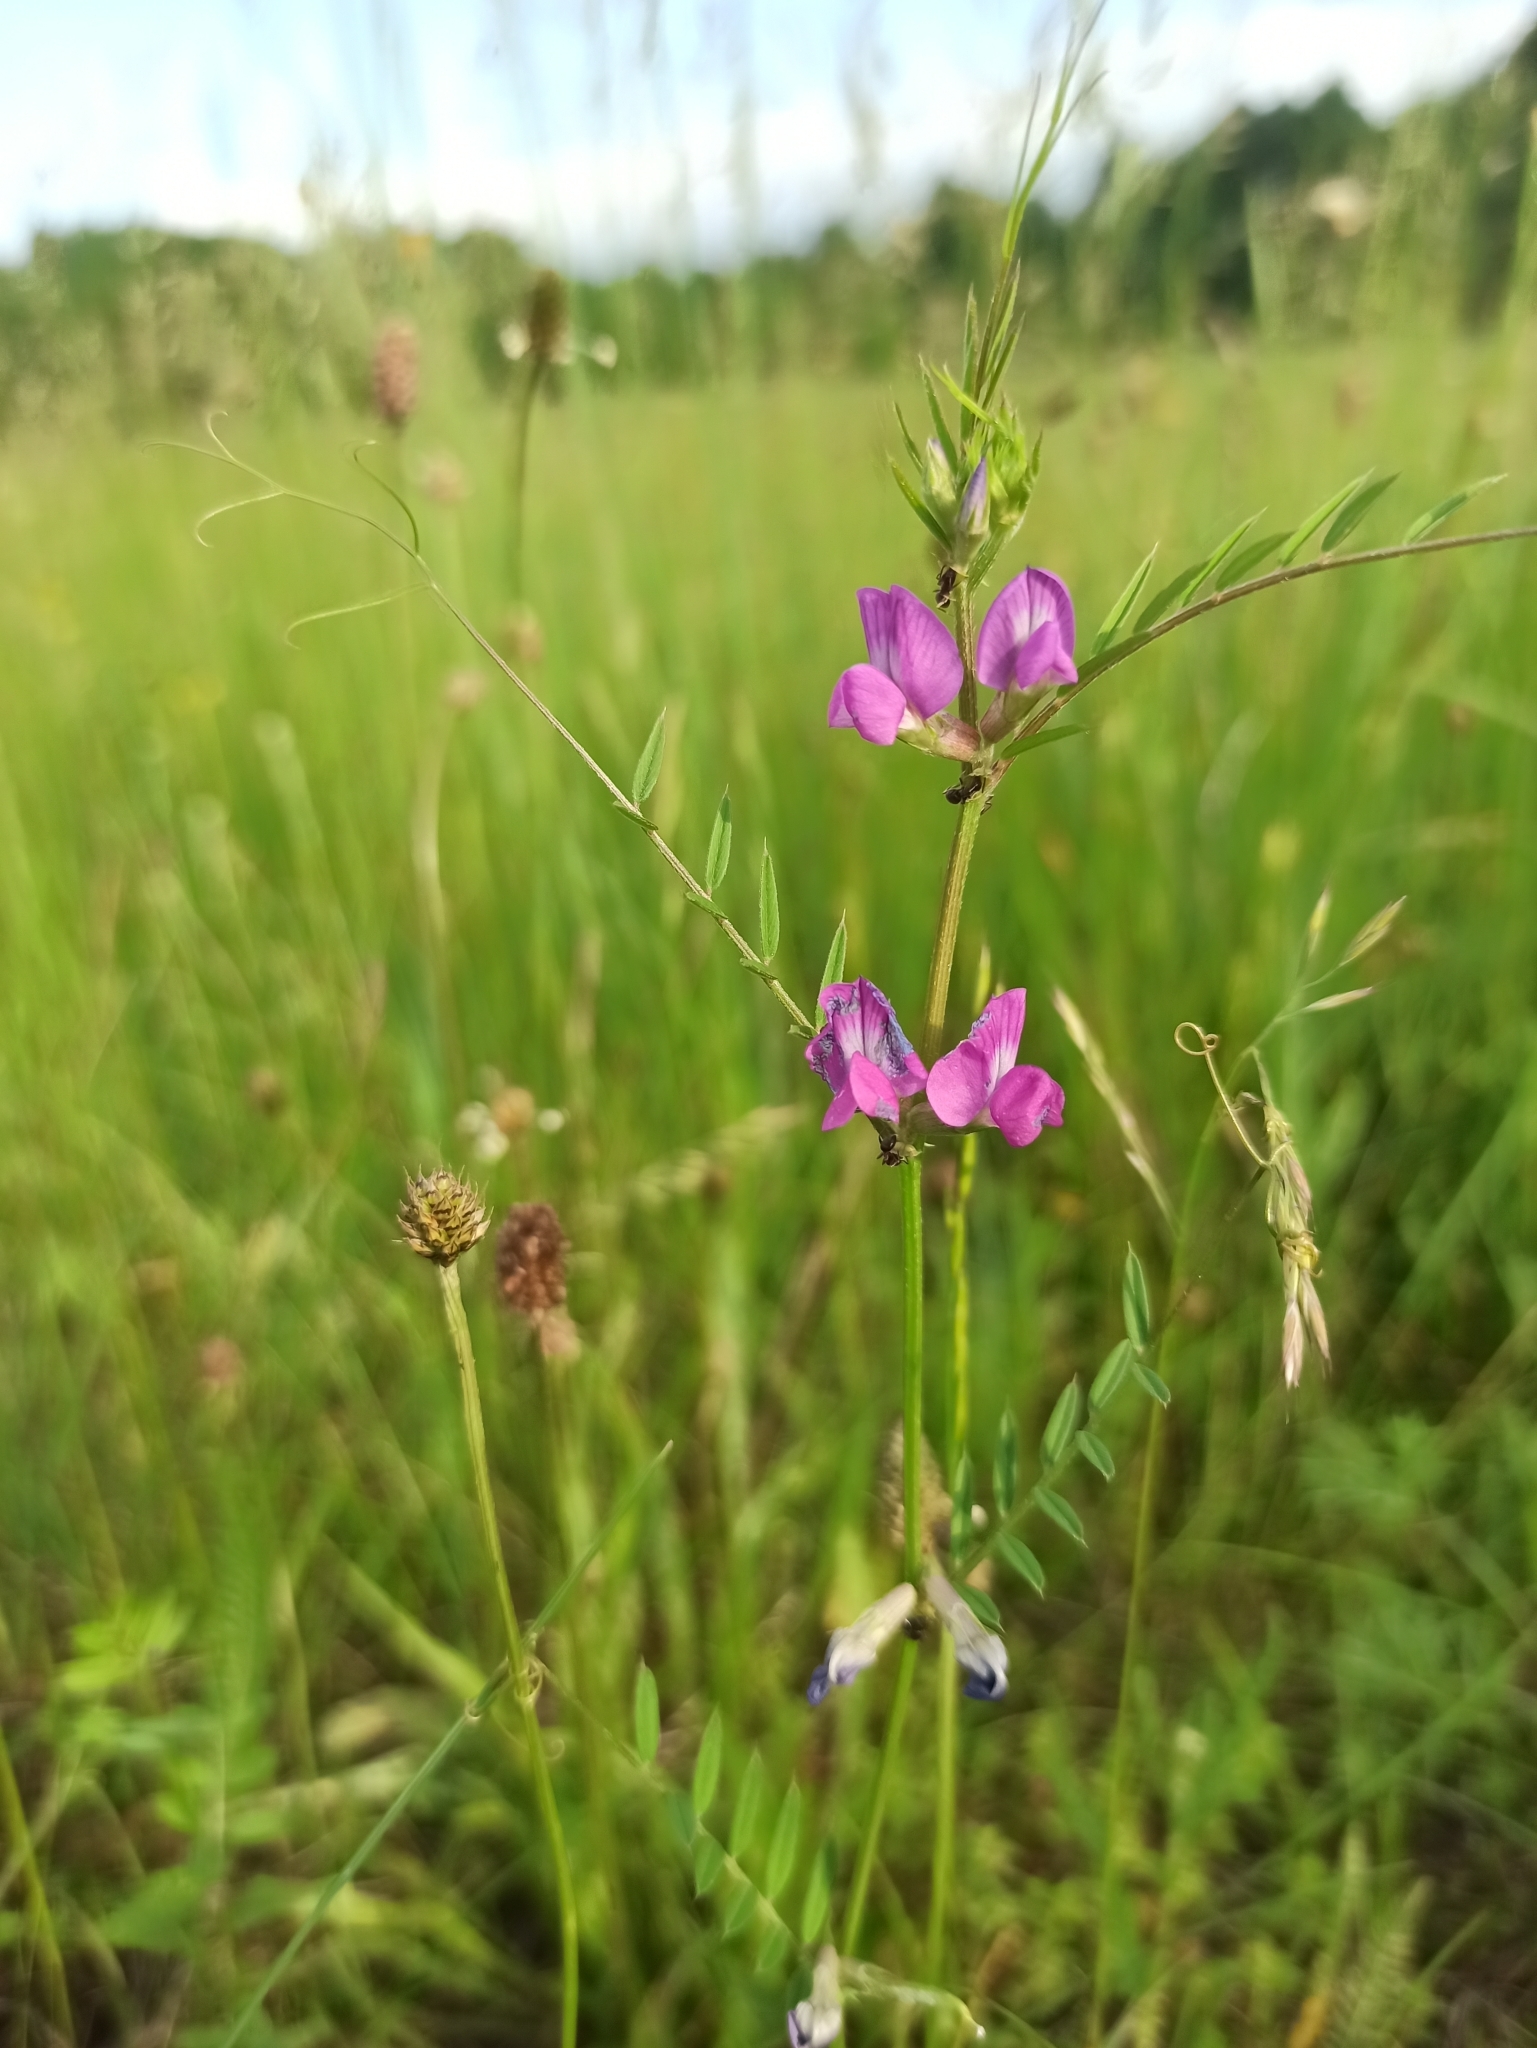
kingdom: Plantae
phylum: Tracheophyta
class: Magnoliopsida
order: Fabales
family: Fabaceae
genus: Vicia
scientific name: Vicia sativa
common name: Garden vetch
